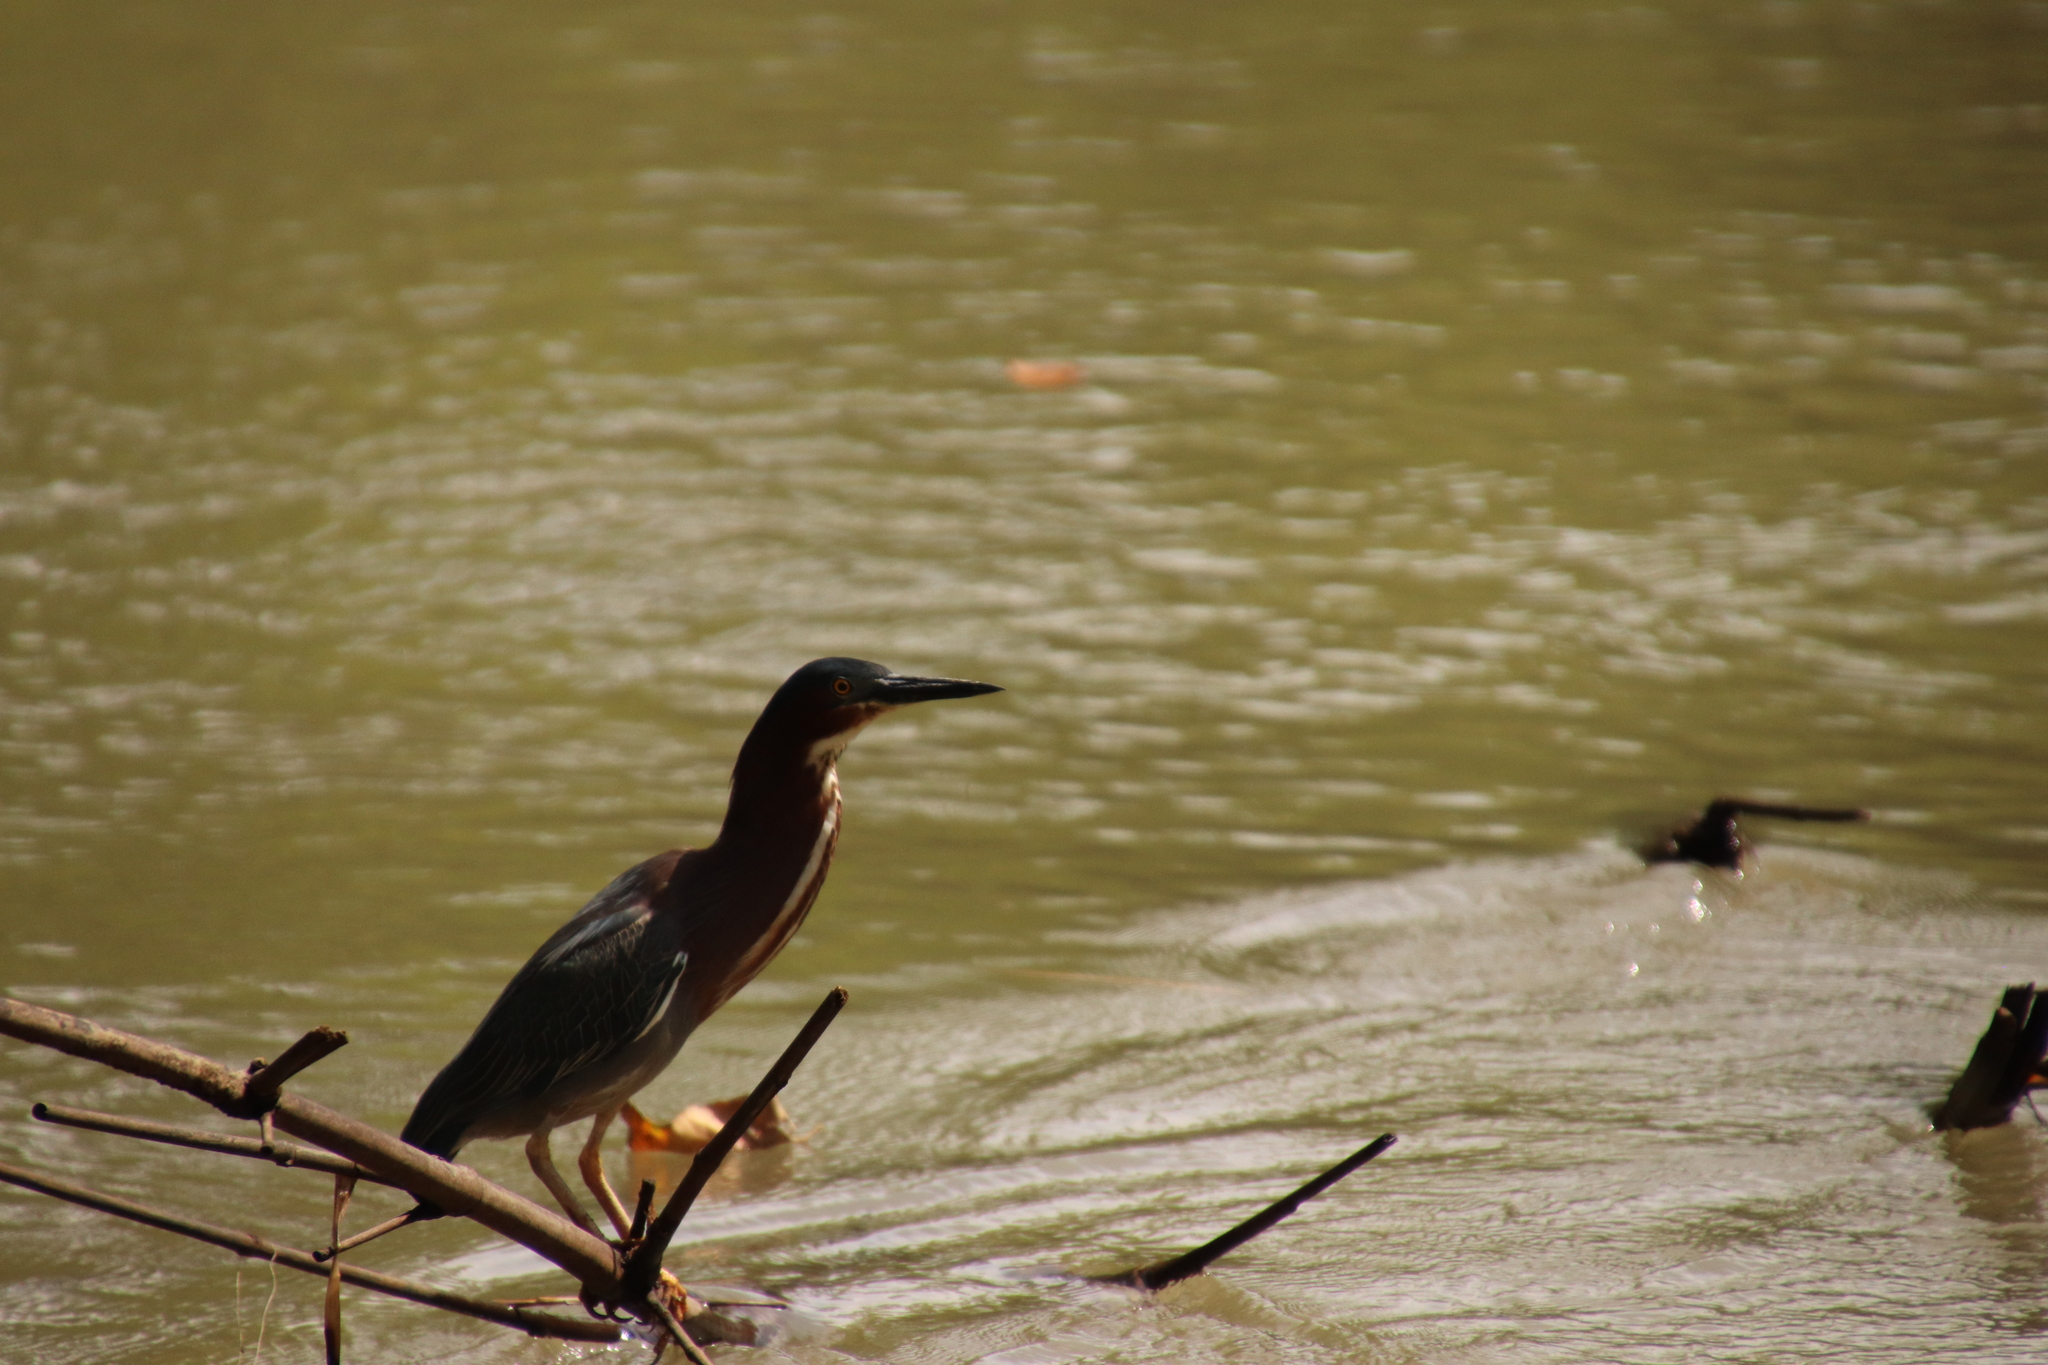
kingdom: Animalia
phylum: Chordata
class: Aves
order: Pelecaniformes
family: Ardeidae
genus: Butorides
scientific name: Butorides virescens
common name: Green heron
